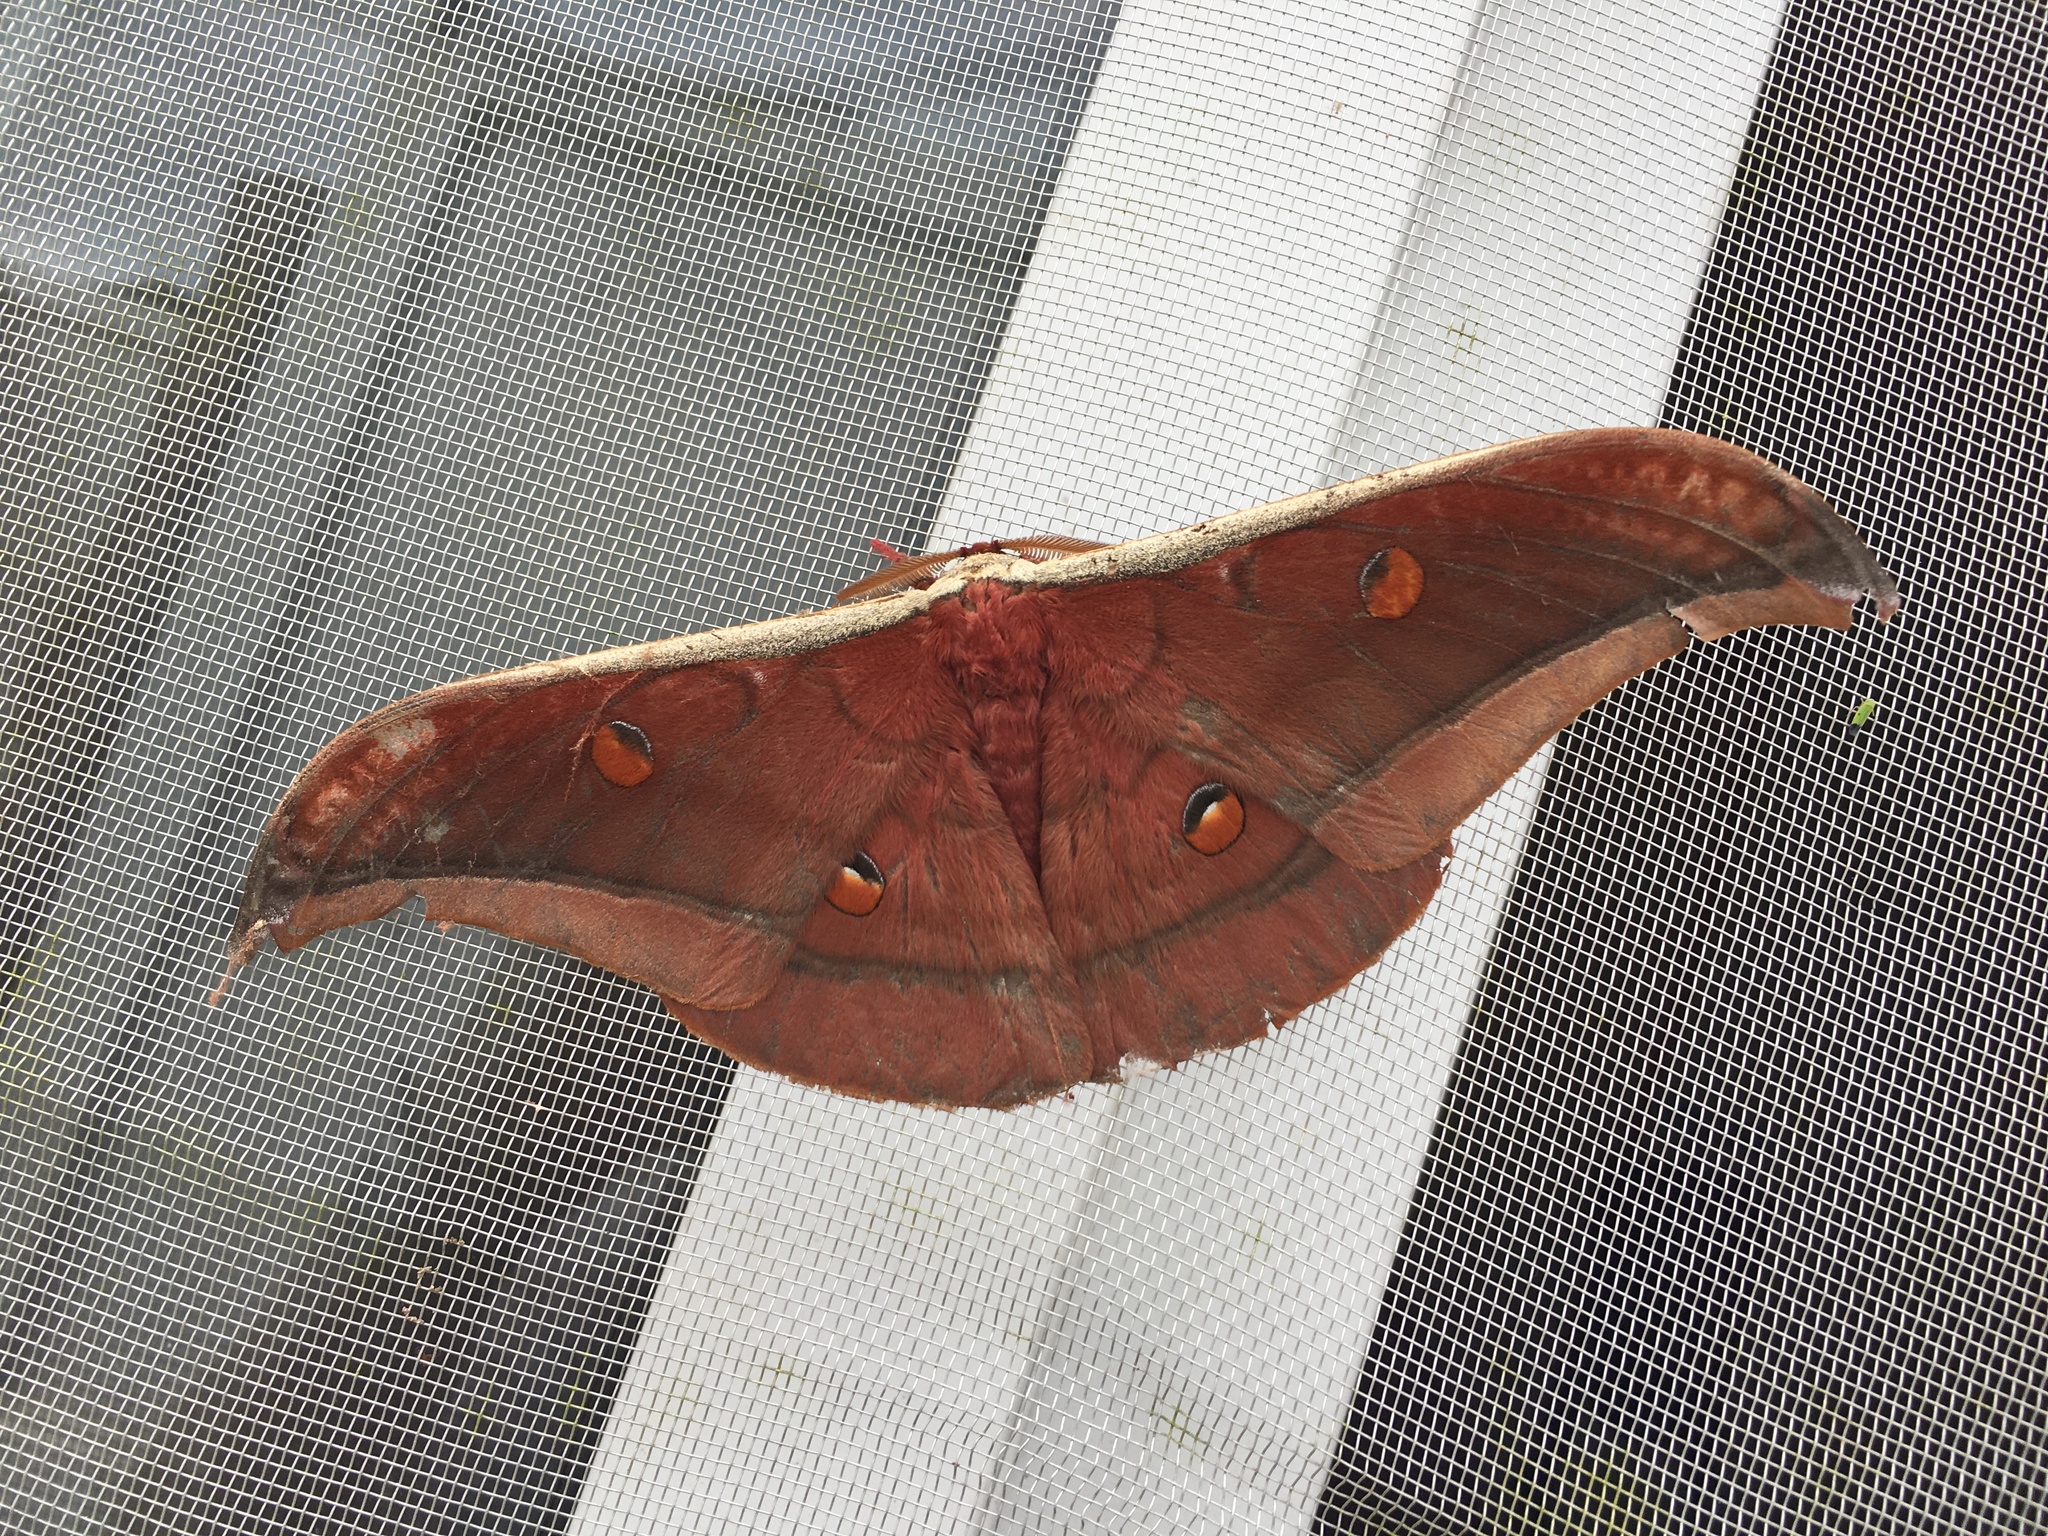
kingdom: Animalia
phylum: Arthropoda
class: Insecta
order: Lepidoptera
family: Saturniidae
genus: Antheraea
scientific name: Antheraea assamensis
